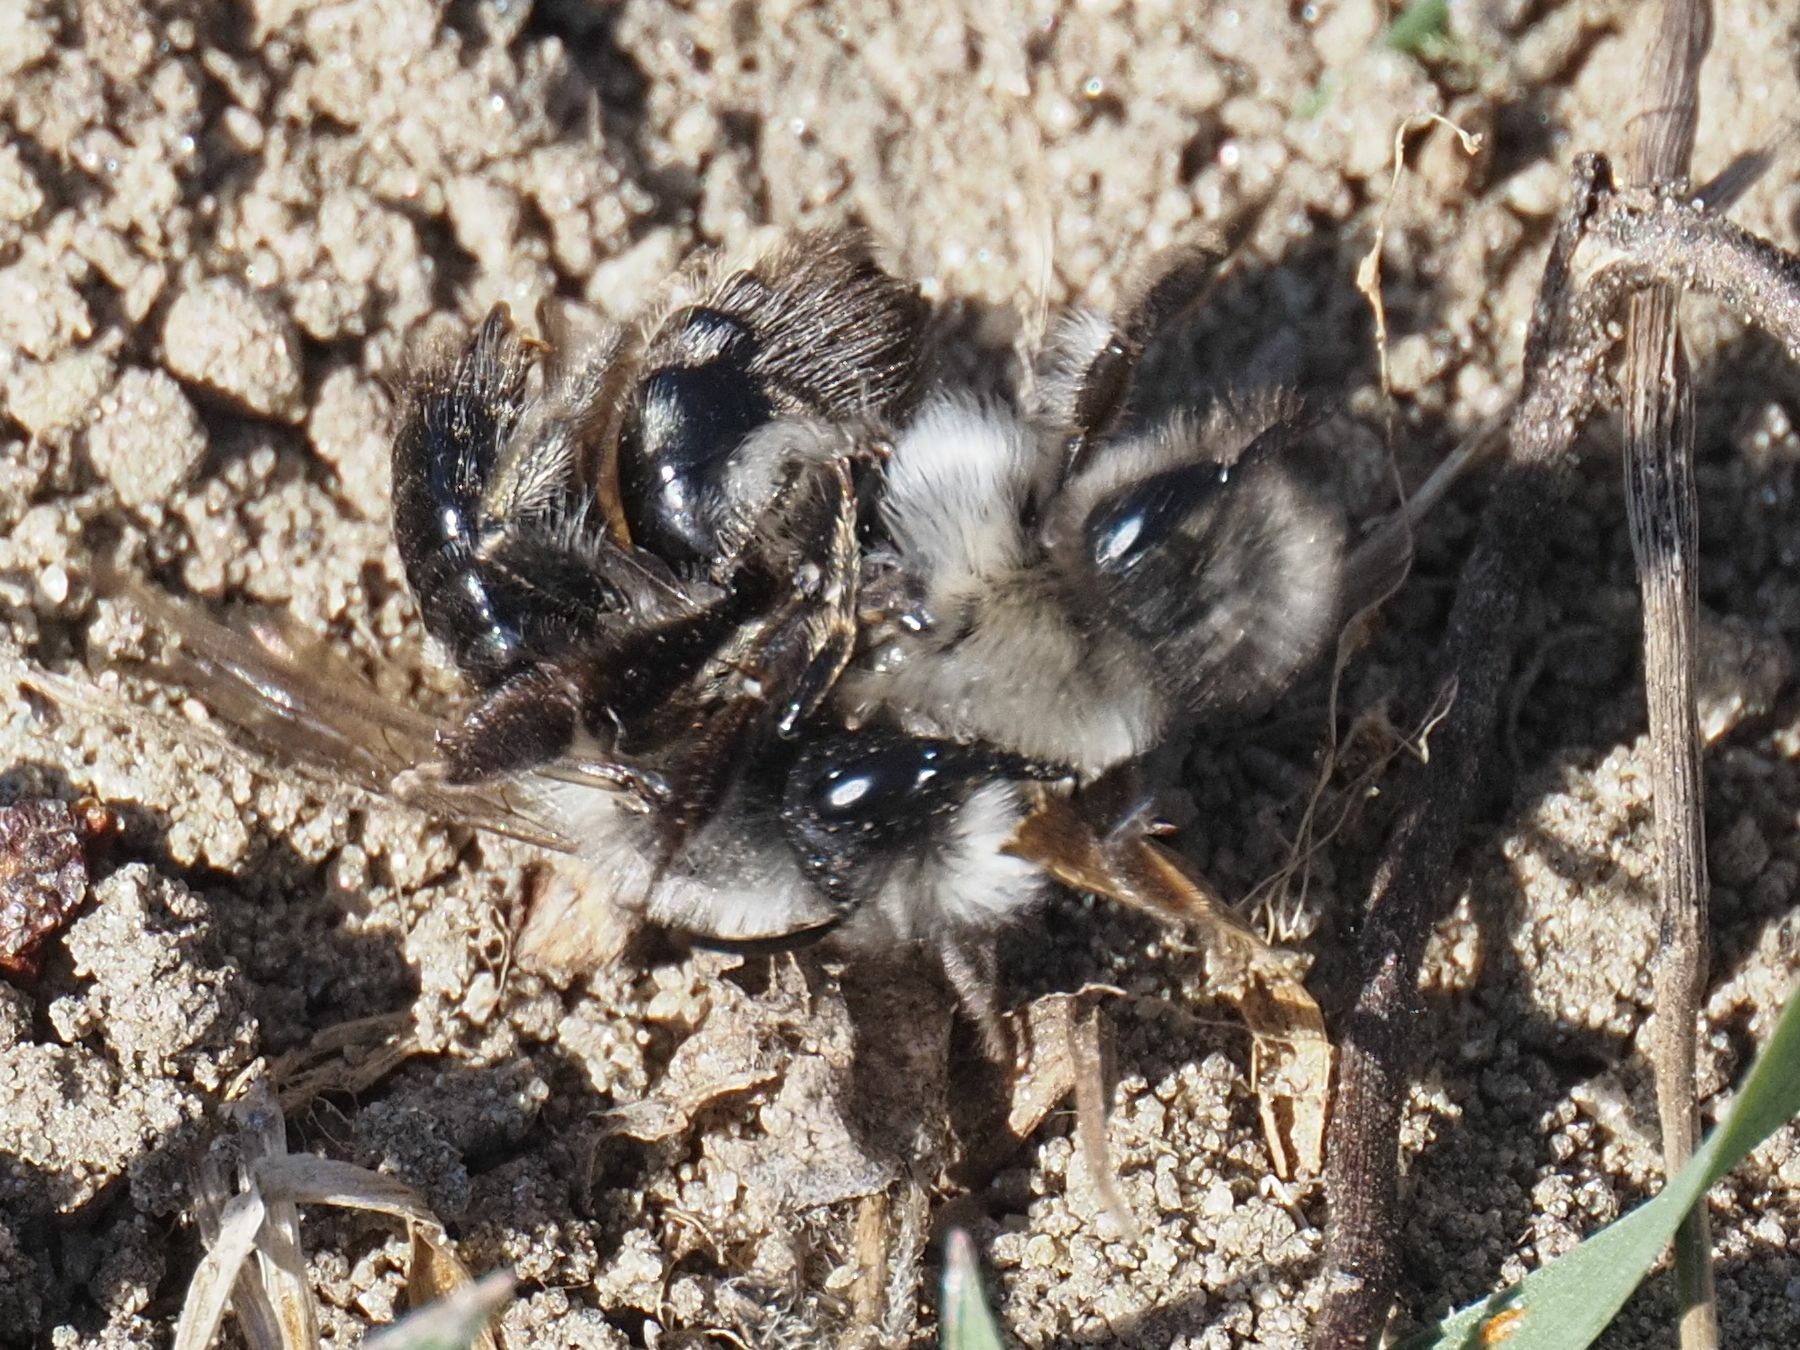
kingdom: Animalia
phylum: Arthropoda
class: Insecta
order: Hymenoptera
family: Andrenidae
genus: Andrena
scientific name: Andrena vaga
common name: Grey-backed mining bee
